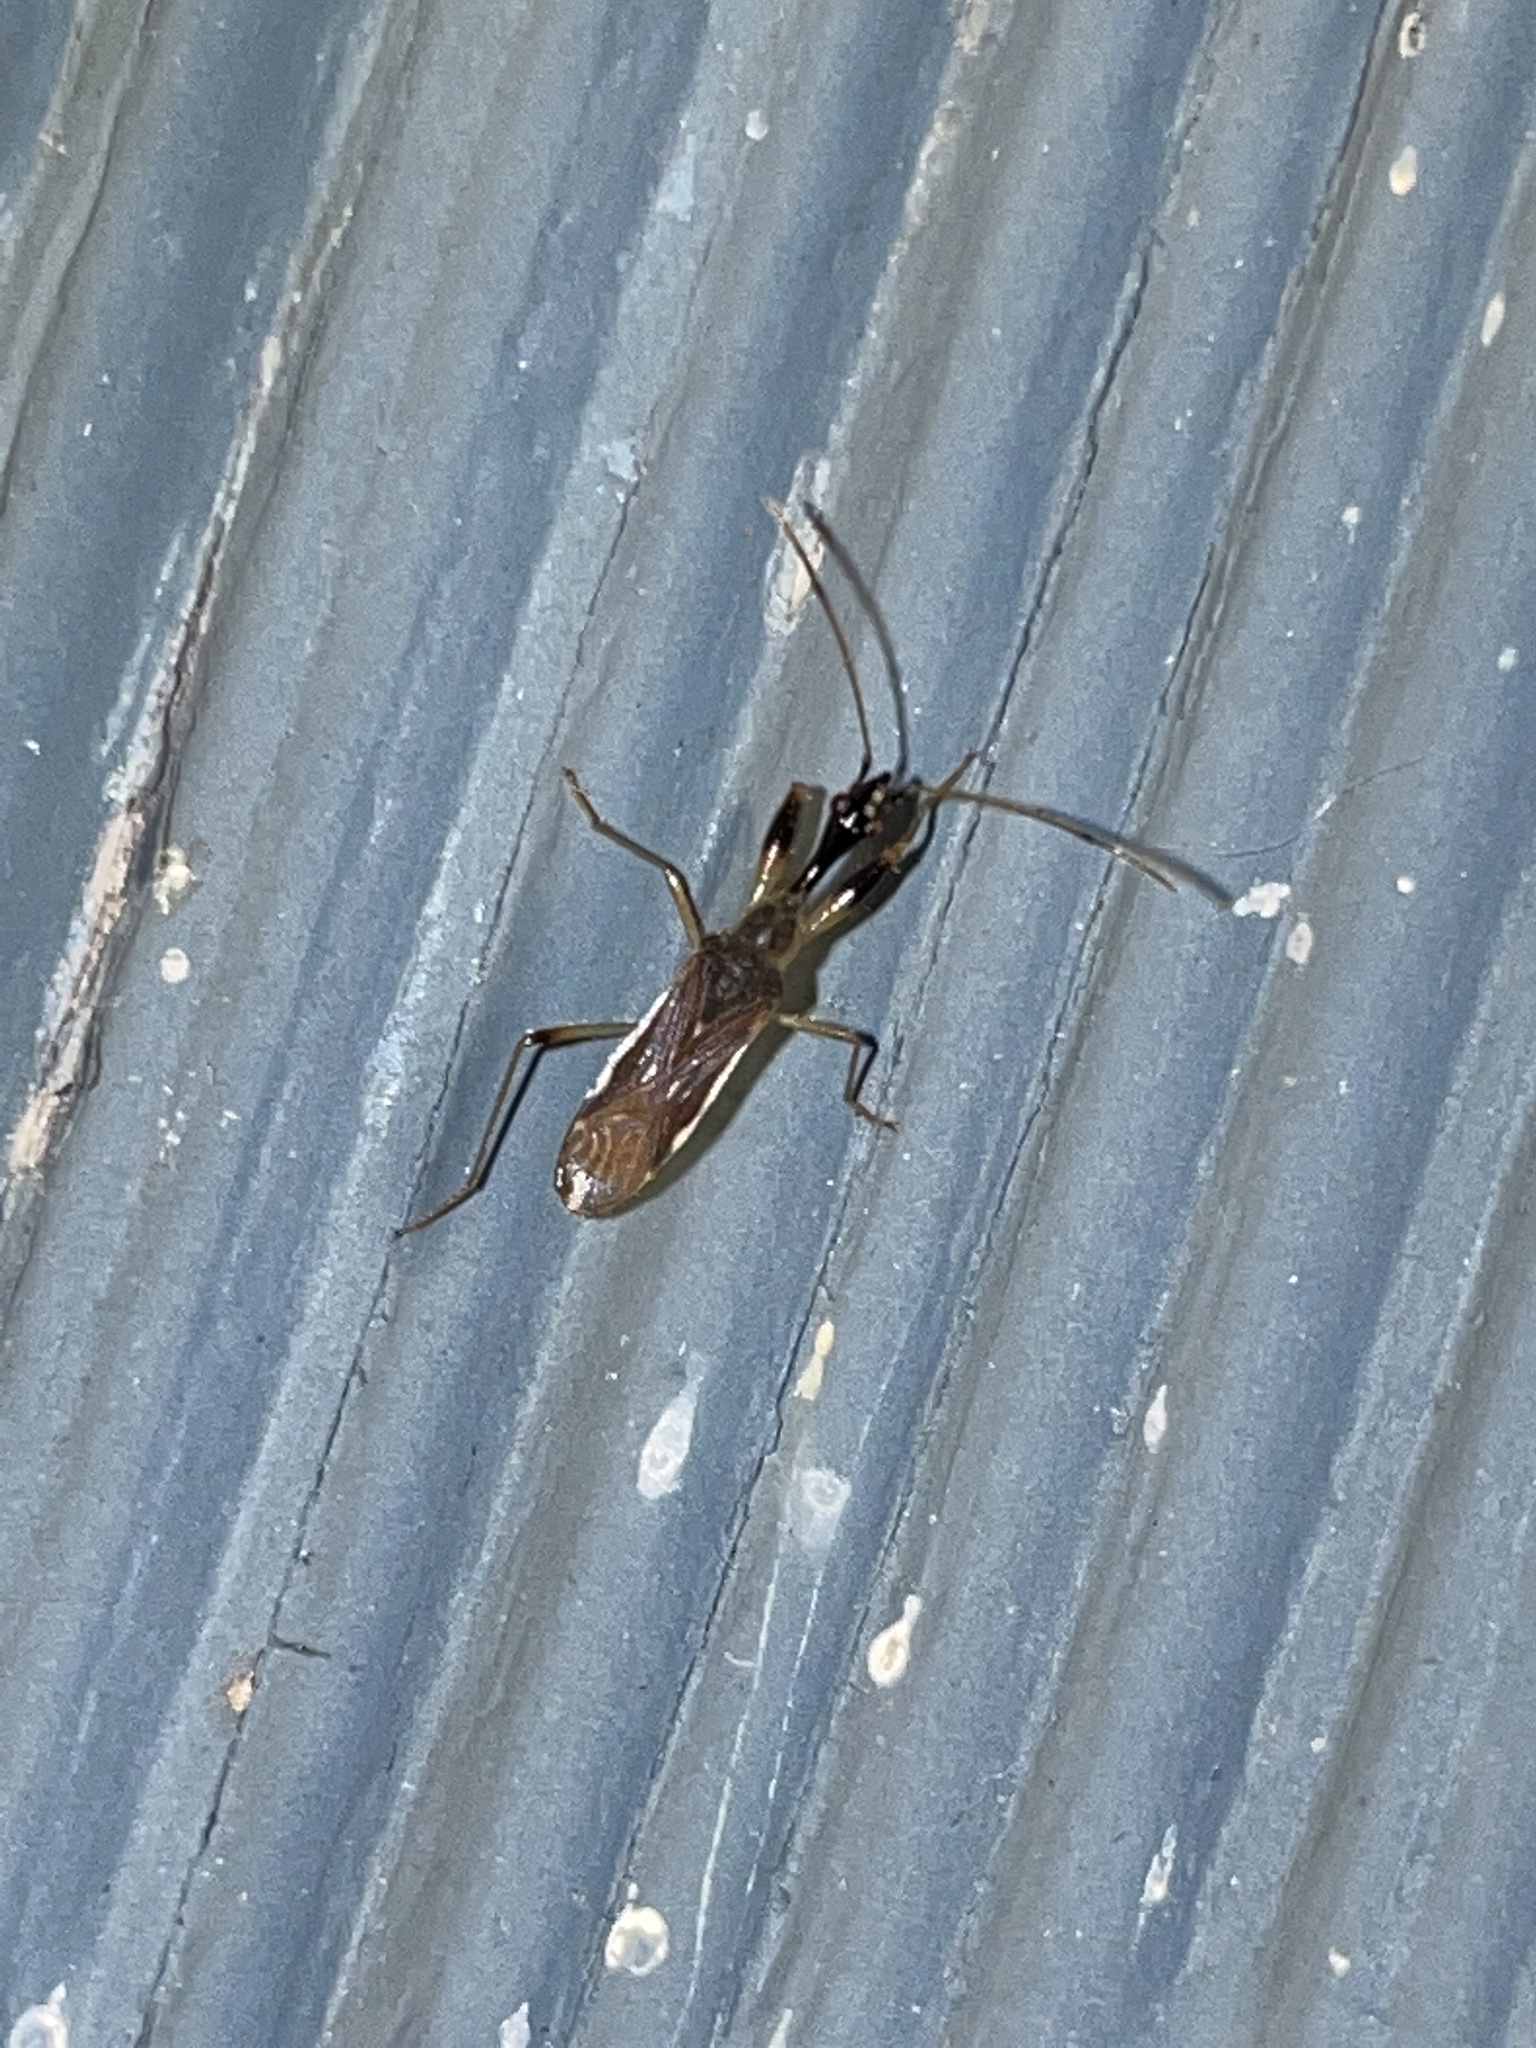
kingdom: Animalia
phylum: Arthropoda
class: Insecta
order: Hemiptera
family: Rhyparochromidae
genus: Myodocha
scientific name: Myodocha serripes
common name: Long-necked seed bug
